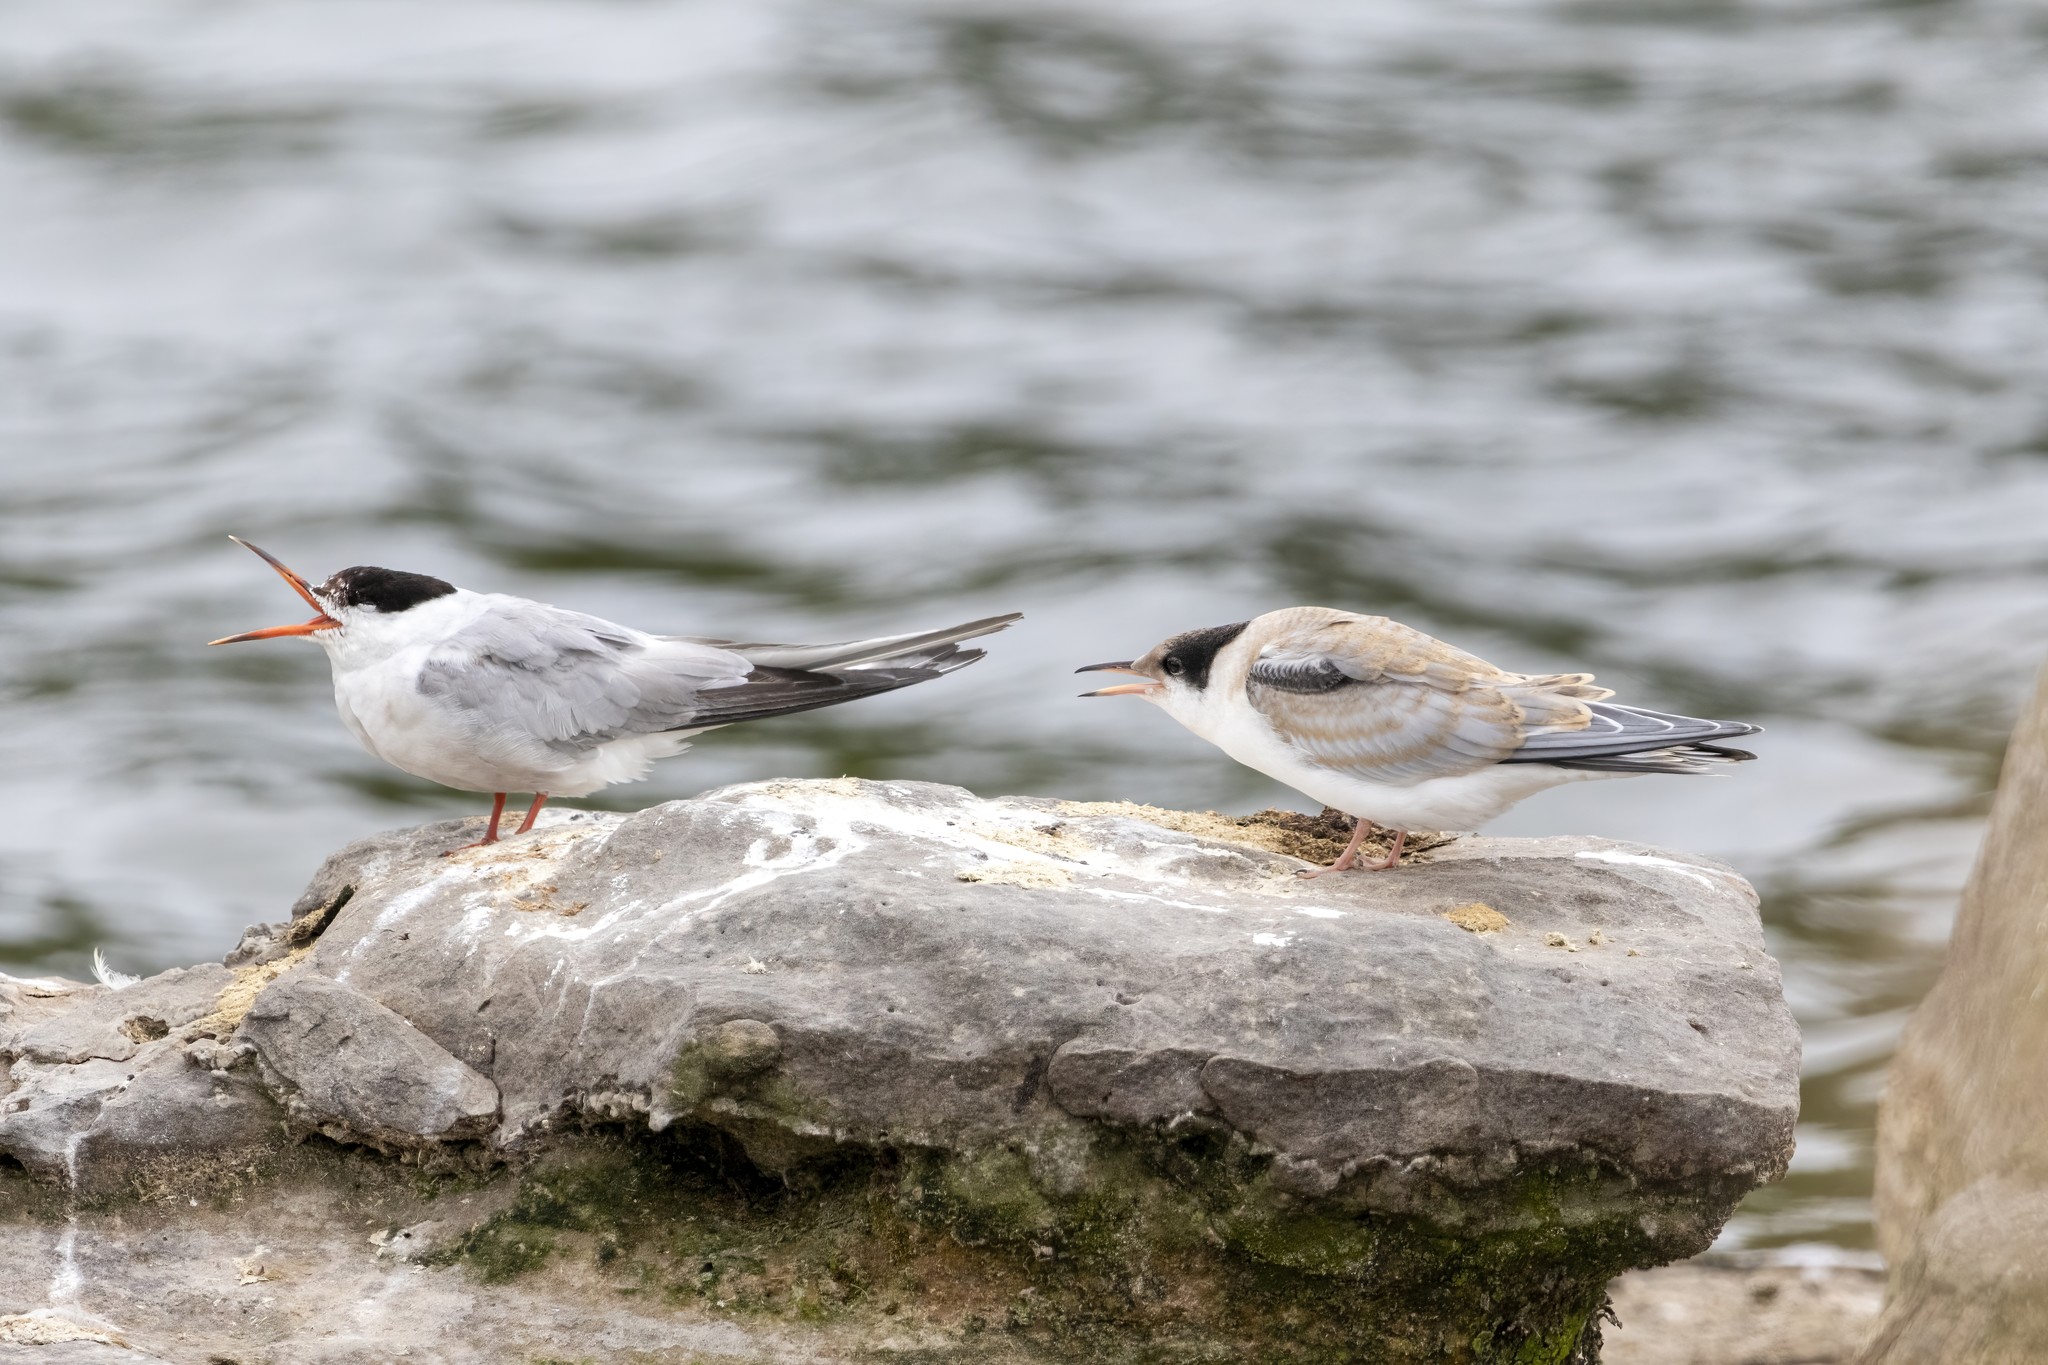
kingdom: Animalia
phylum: Chordata
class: Aves
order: Charadriiformes
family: Laridae
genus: Sterna
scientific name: Sterna hirundo
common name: Common tern
